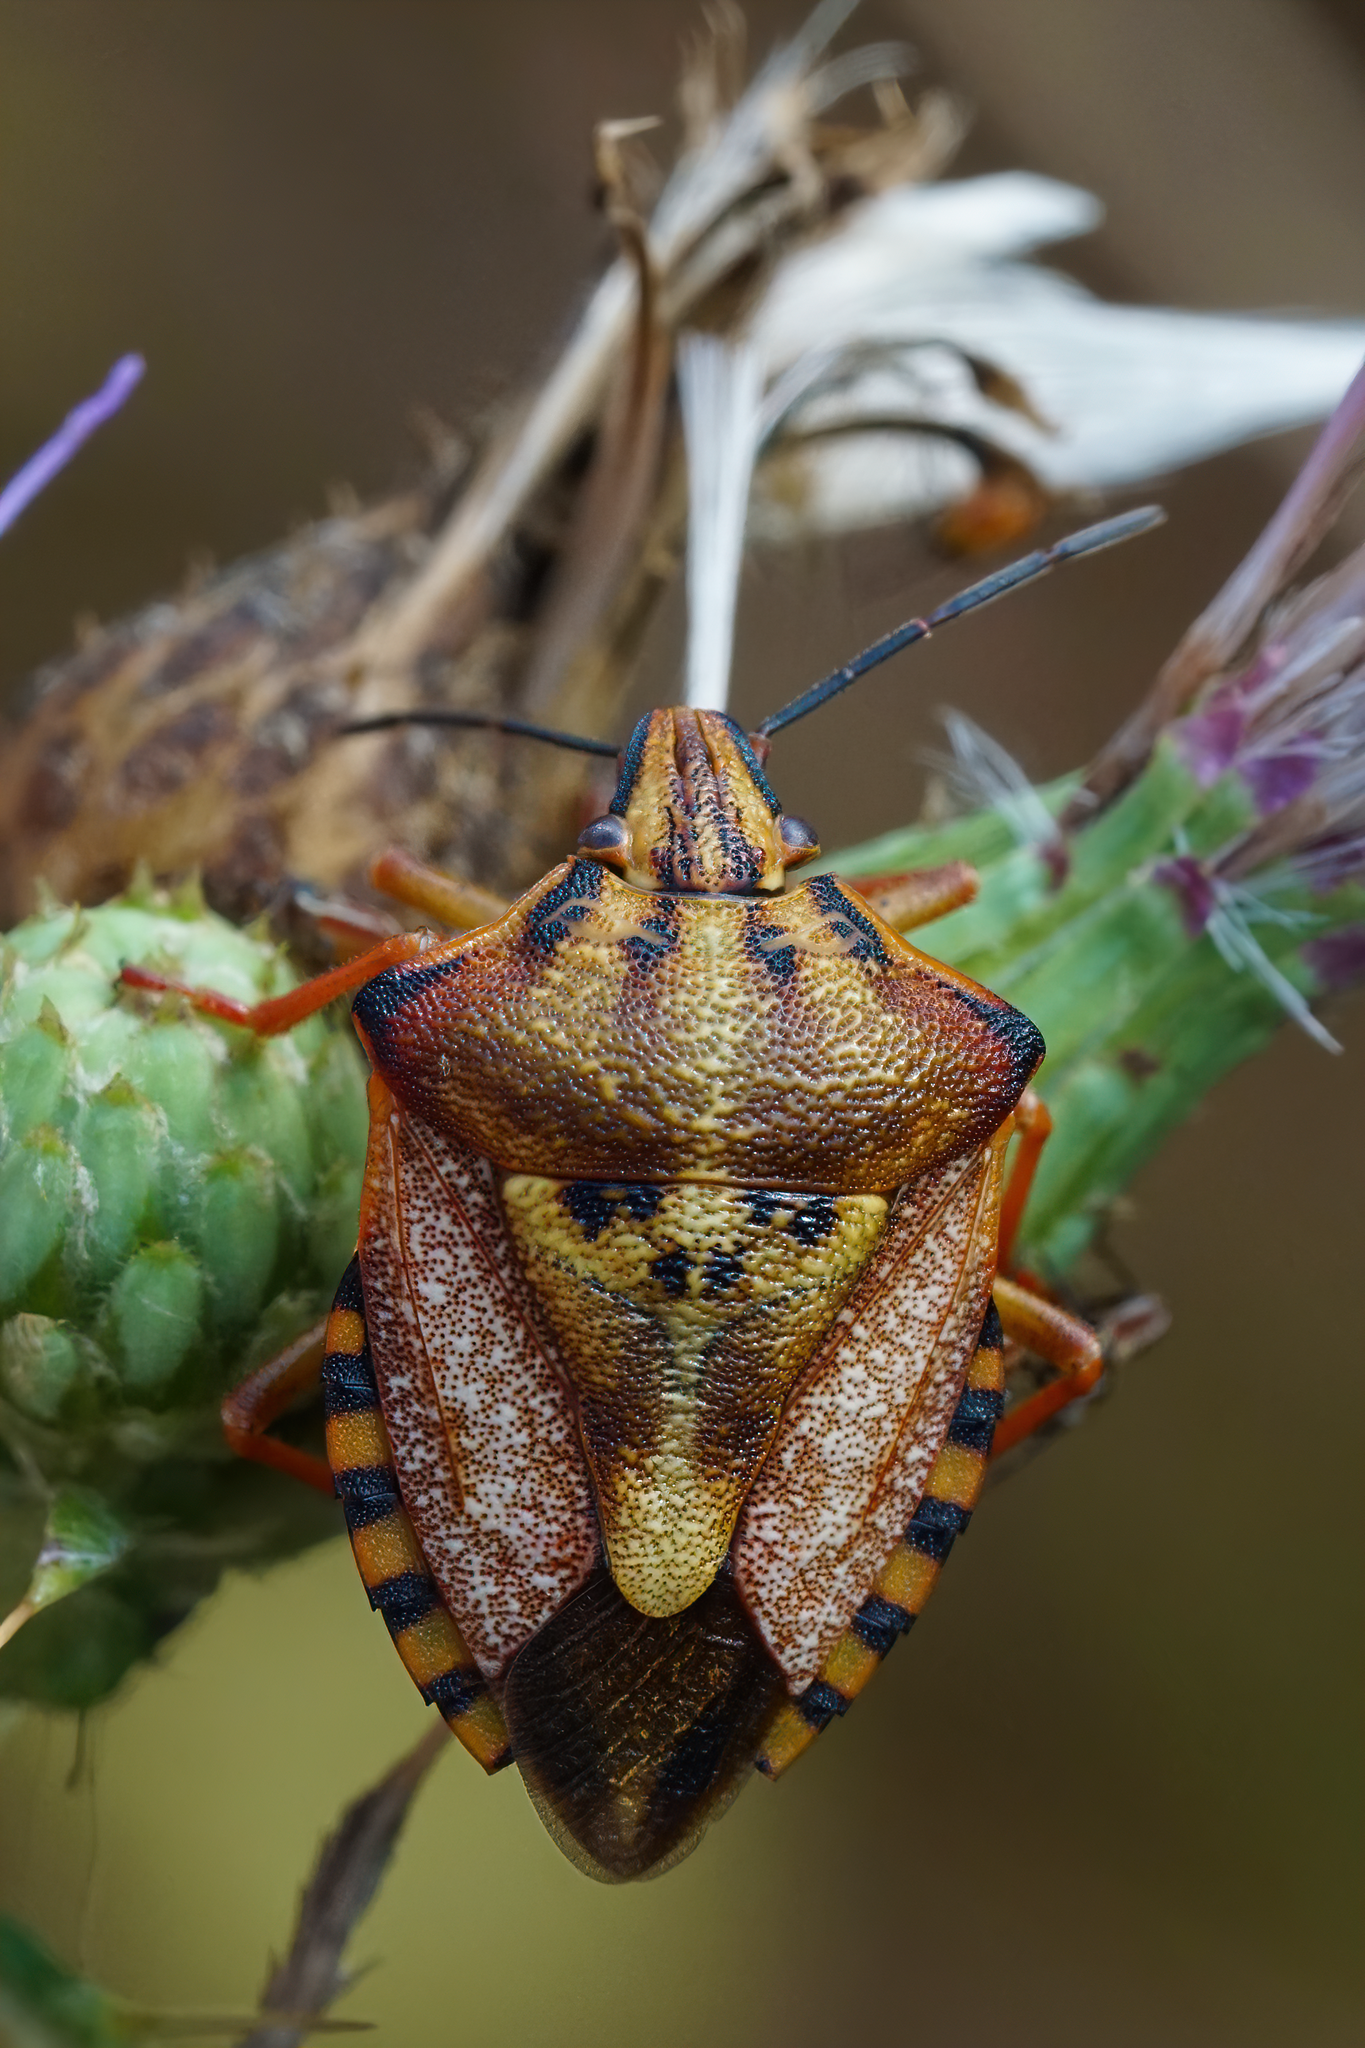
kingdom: Animalia
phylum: Arthropoda
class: Insecta
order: Hemiptera
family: Pentatomidae
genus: Carpocoris
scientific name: Carpocoris mediterraneus
